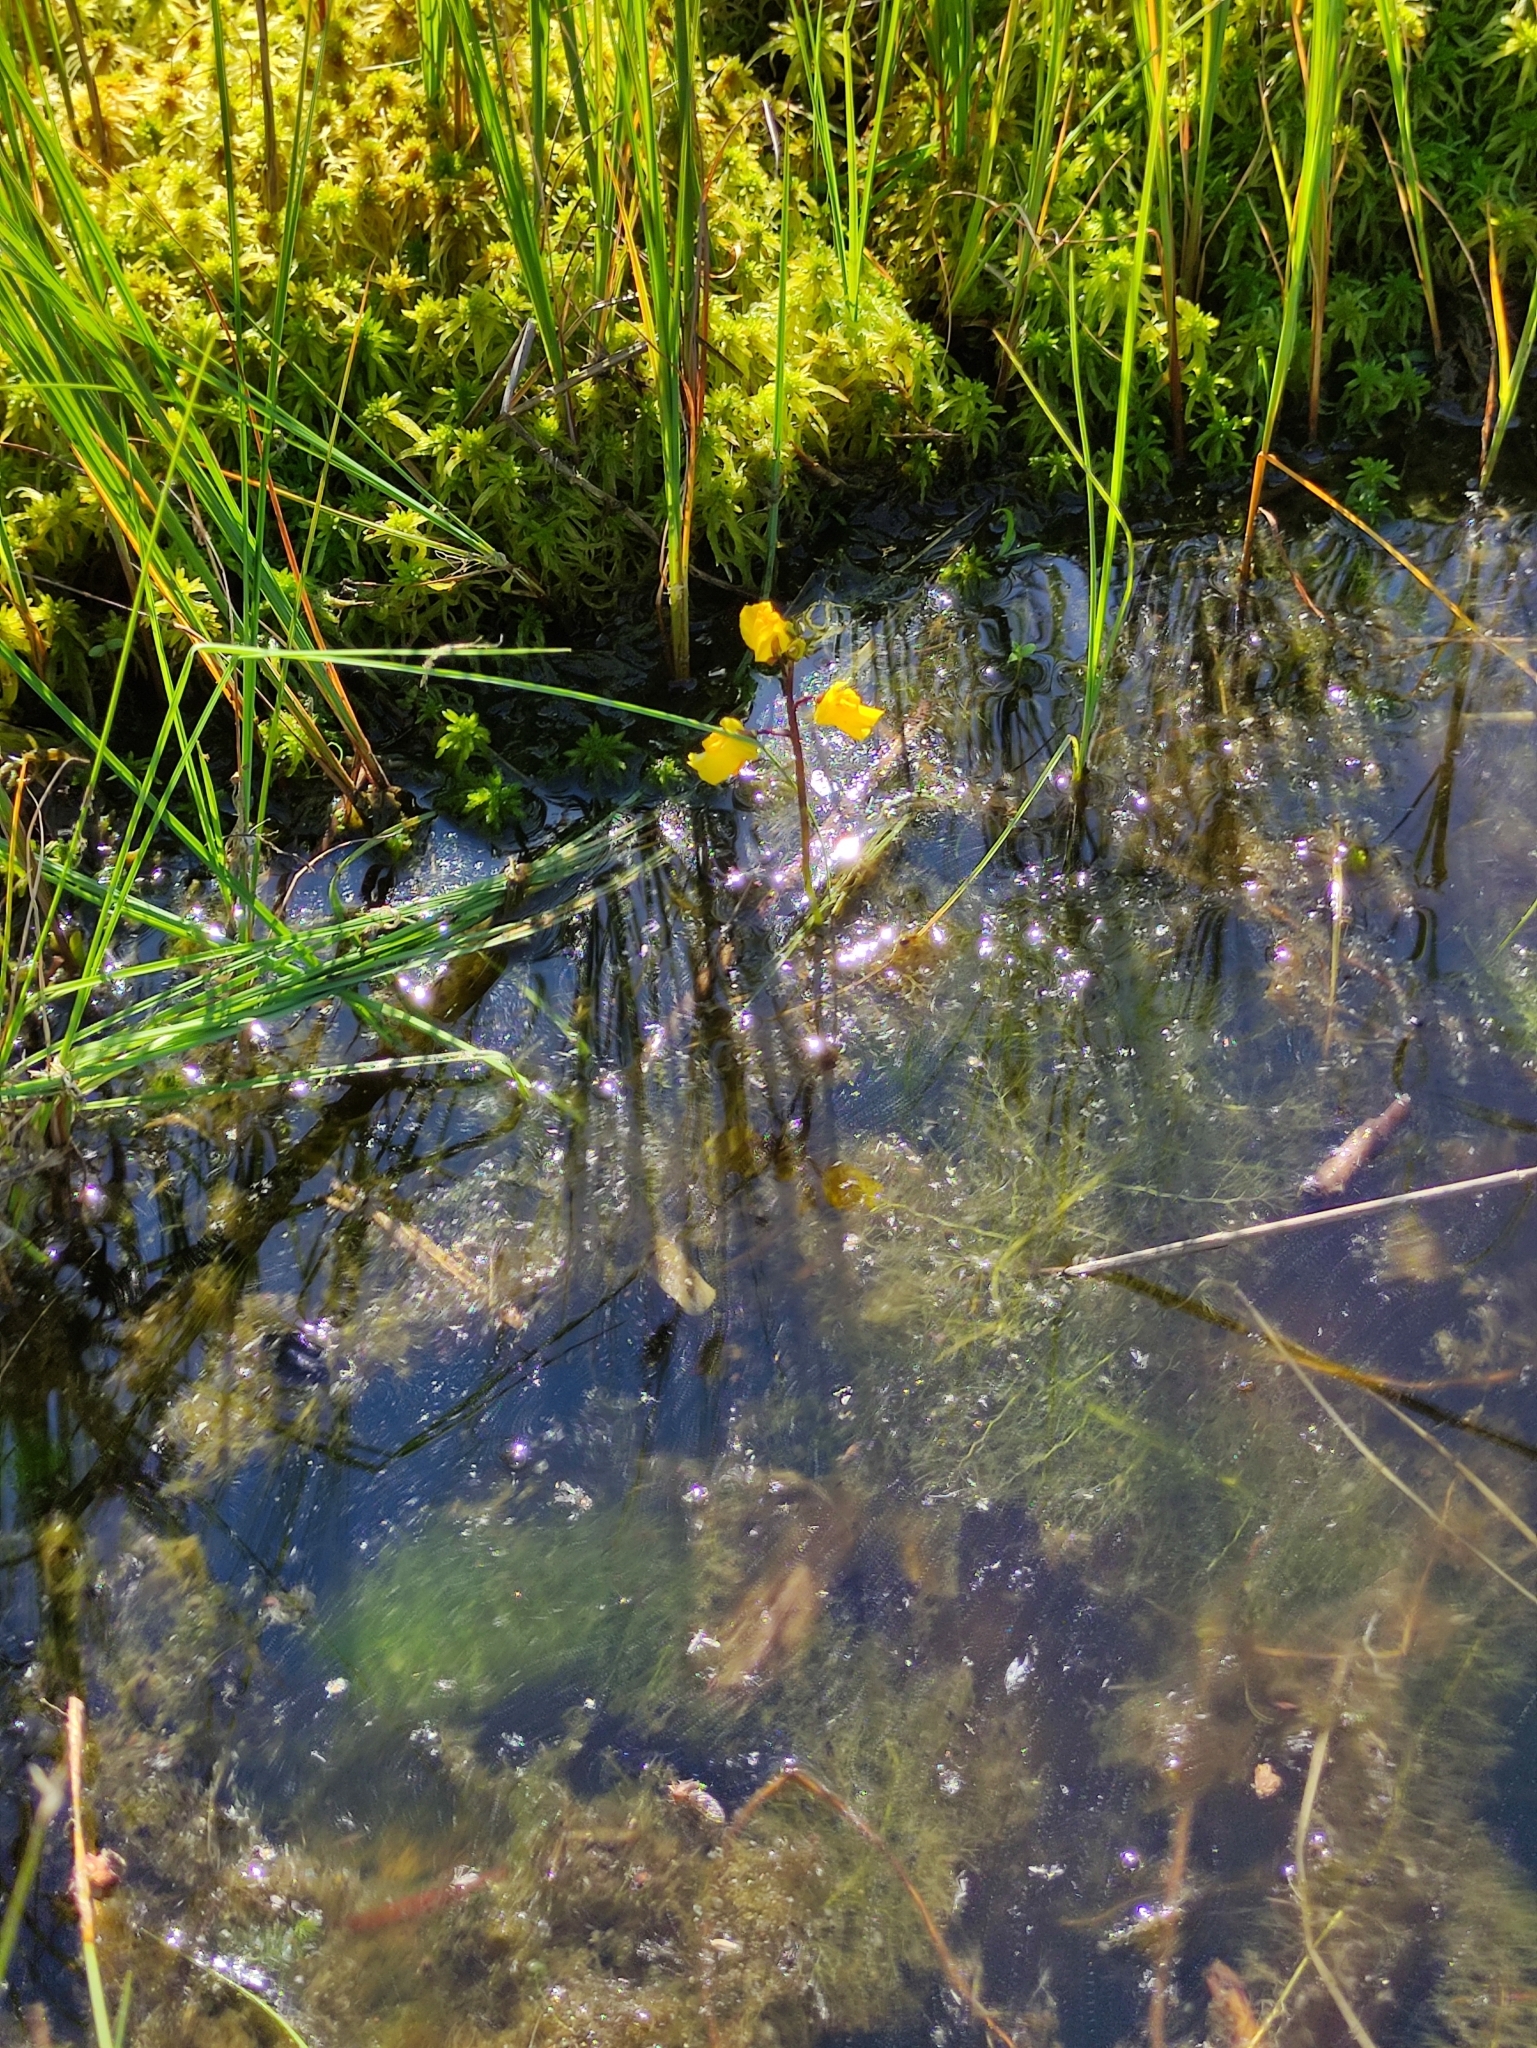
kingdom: Plantae
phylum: Tracheophyta
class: Magnoliopsida
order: Lamiales
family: Lentibulariaceae
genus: Utricularia
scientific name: Utricularia vulgaris
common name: Greater bladderwort
